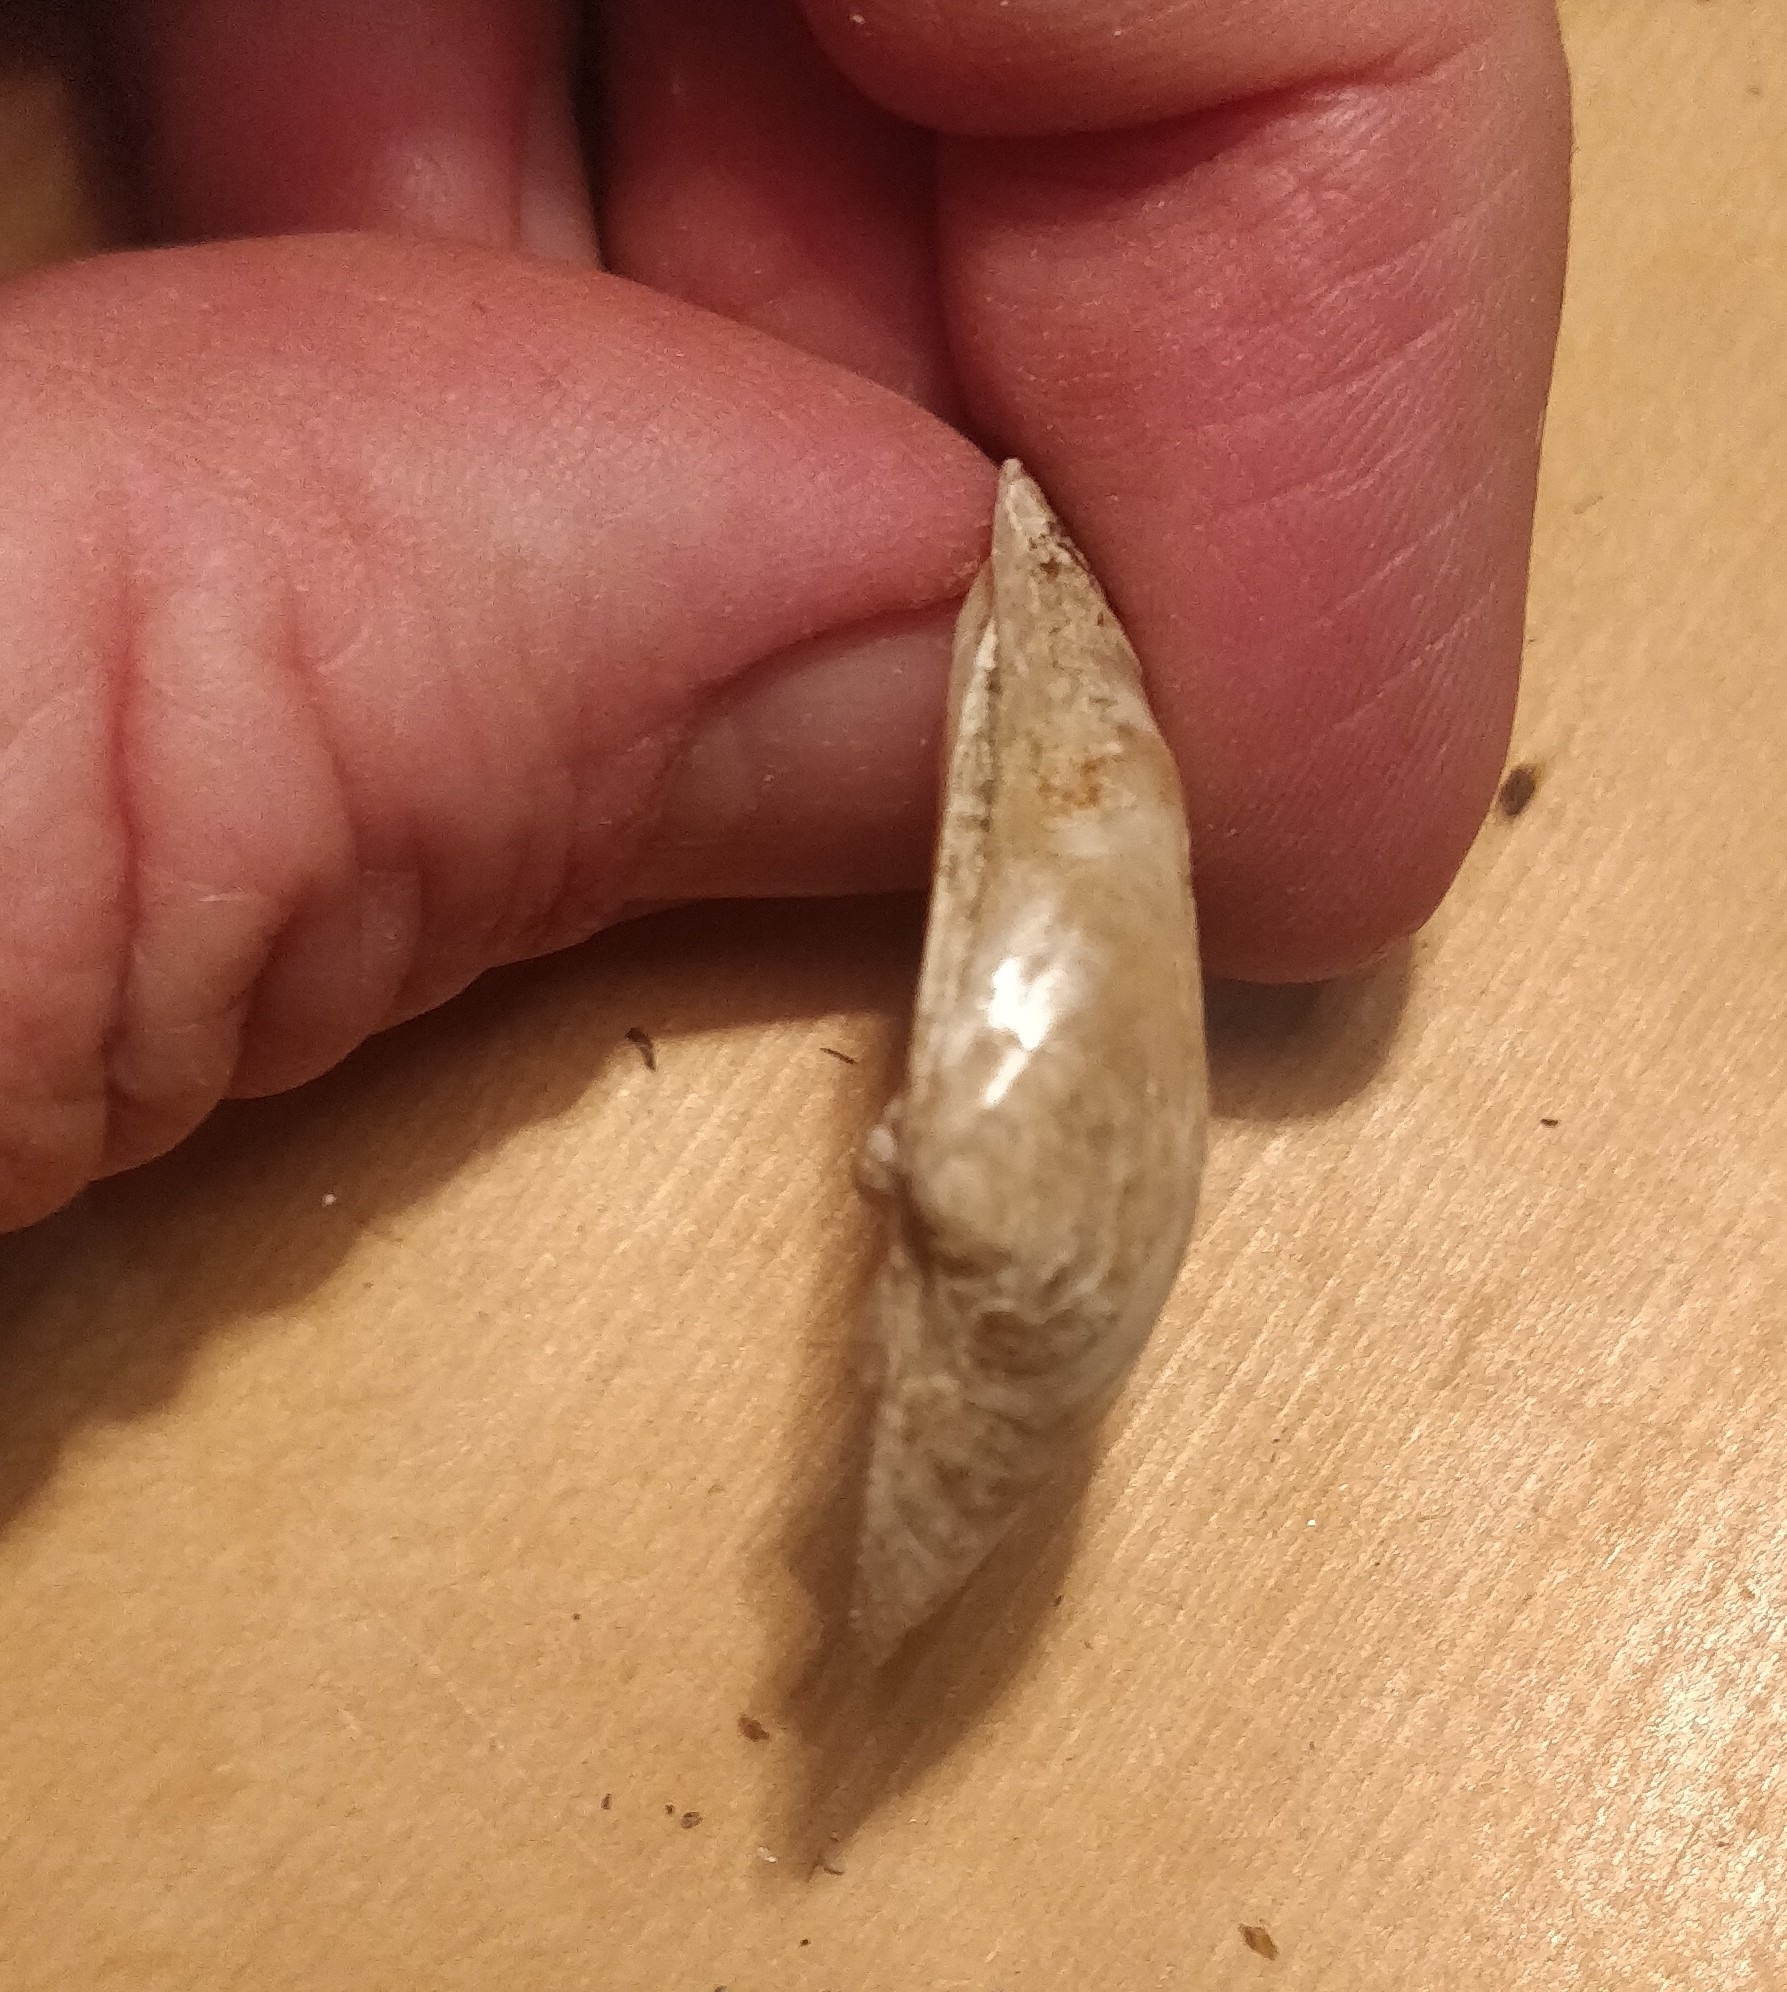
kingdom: Animalia
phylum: Mollusca
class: Bivalvia
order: Unionida
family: Unionidae
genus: Fusconaia
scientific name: Fusconaia flava
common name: Wabash pigtoe
